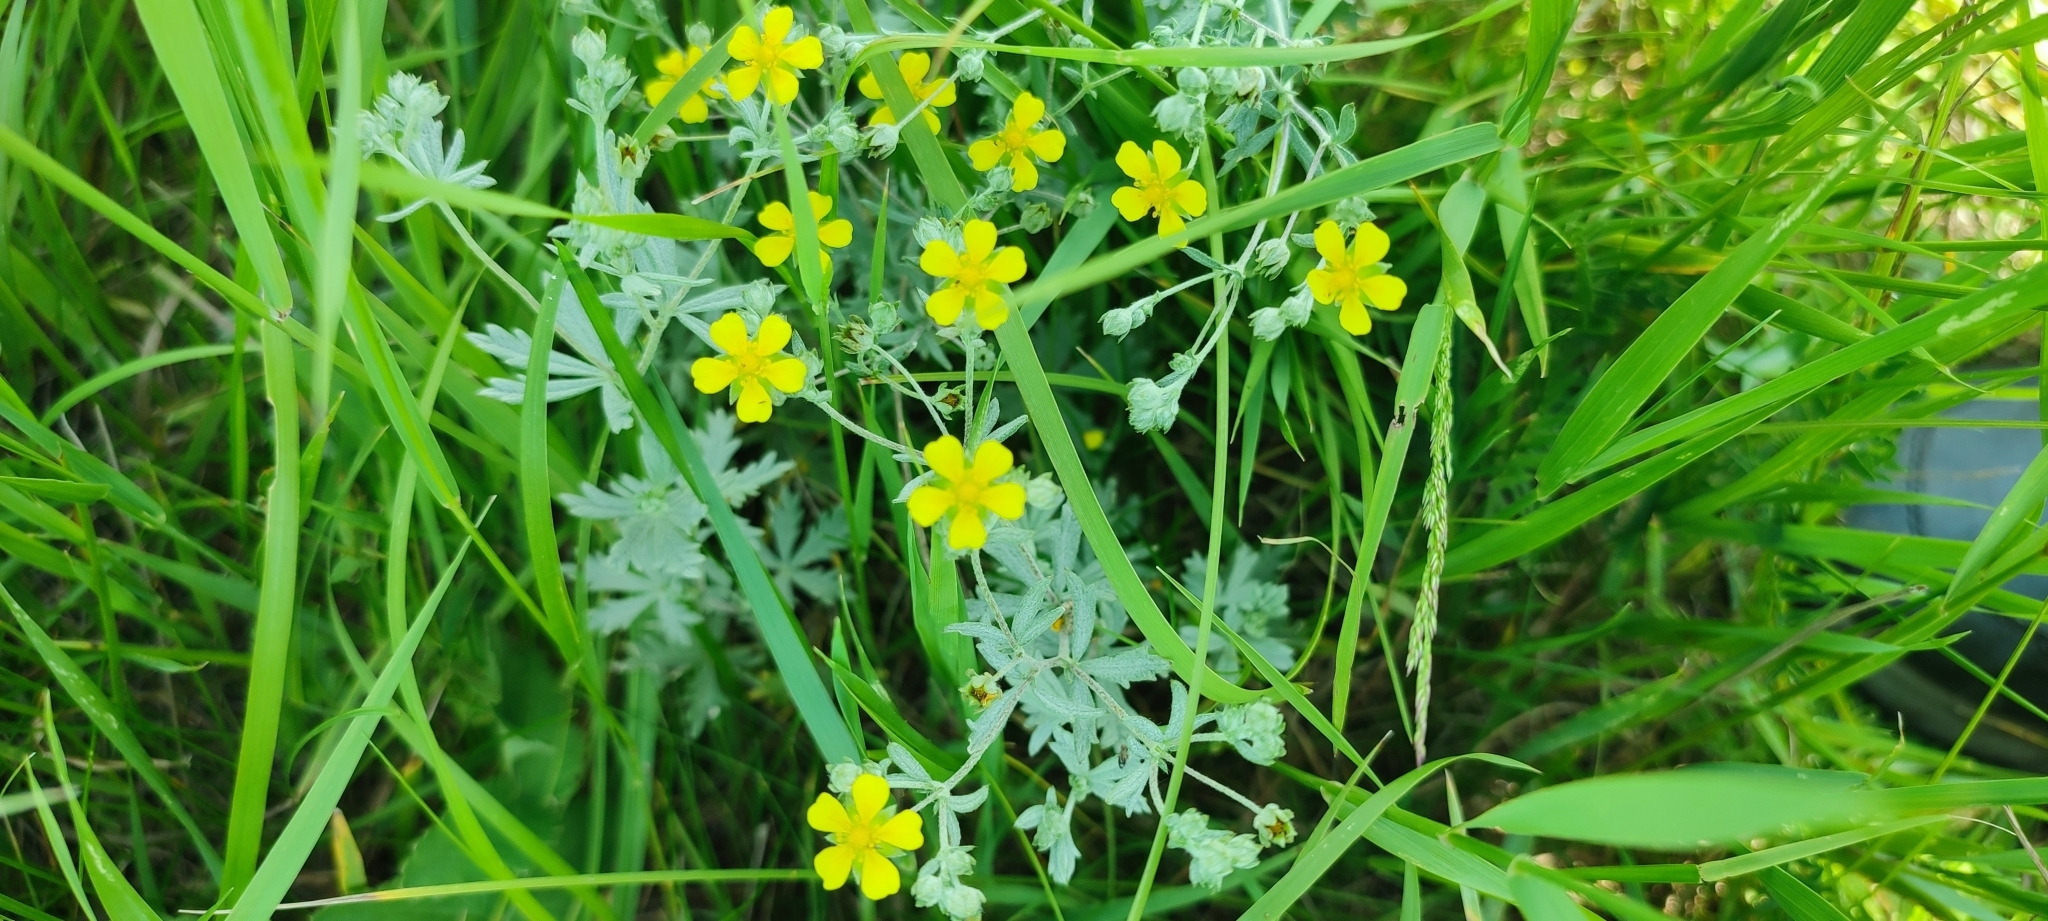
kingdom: Plantae
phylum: Tracheophyta
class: Magnoliopsida
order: Rosales
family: Rosaceae
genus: Potentilla
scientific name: Potentilla argentea
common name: Hoary cinquefoil
